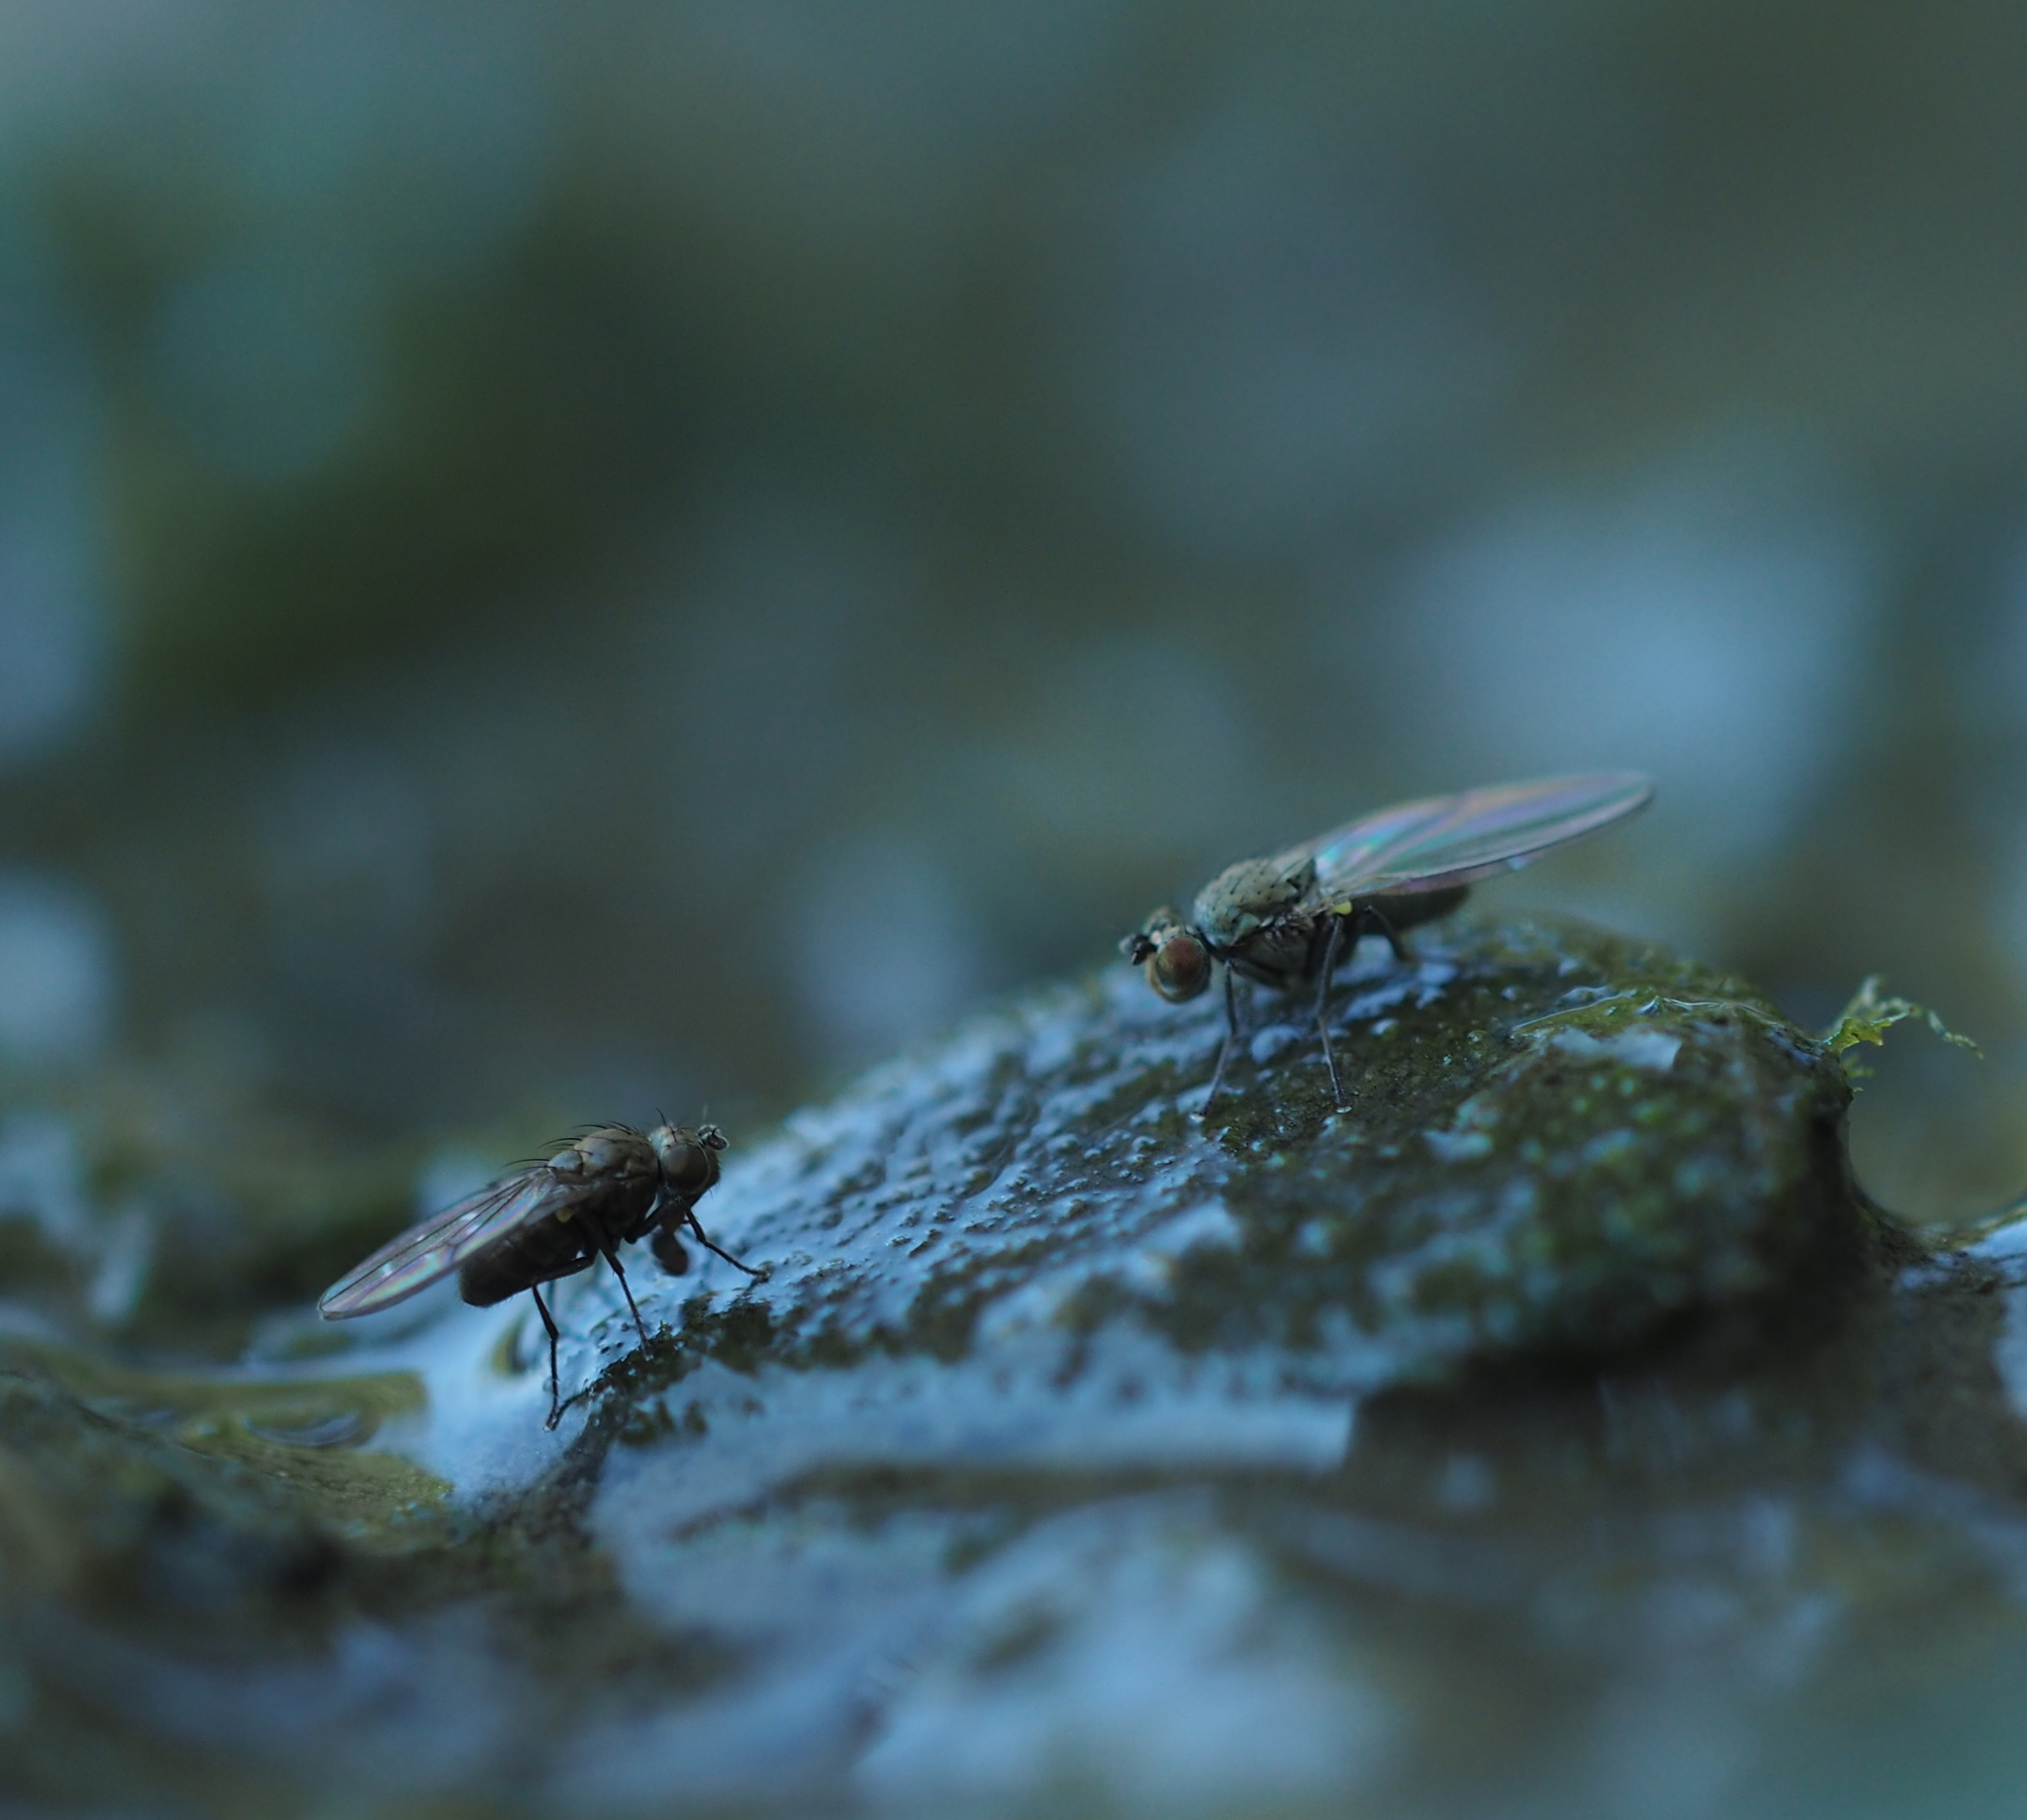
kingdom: Animalia
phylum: Arthropoda
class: Insecta
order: Diptera
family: Ephydridae
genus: Scatella
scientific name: Scatella tenuicosta
